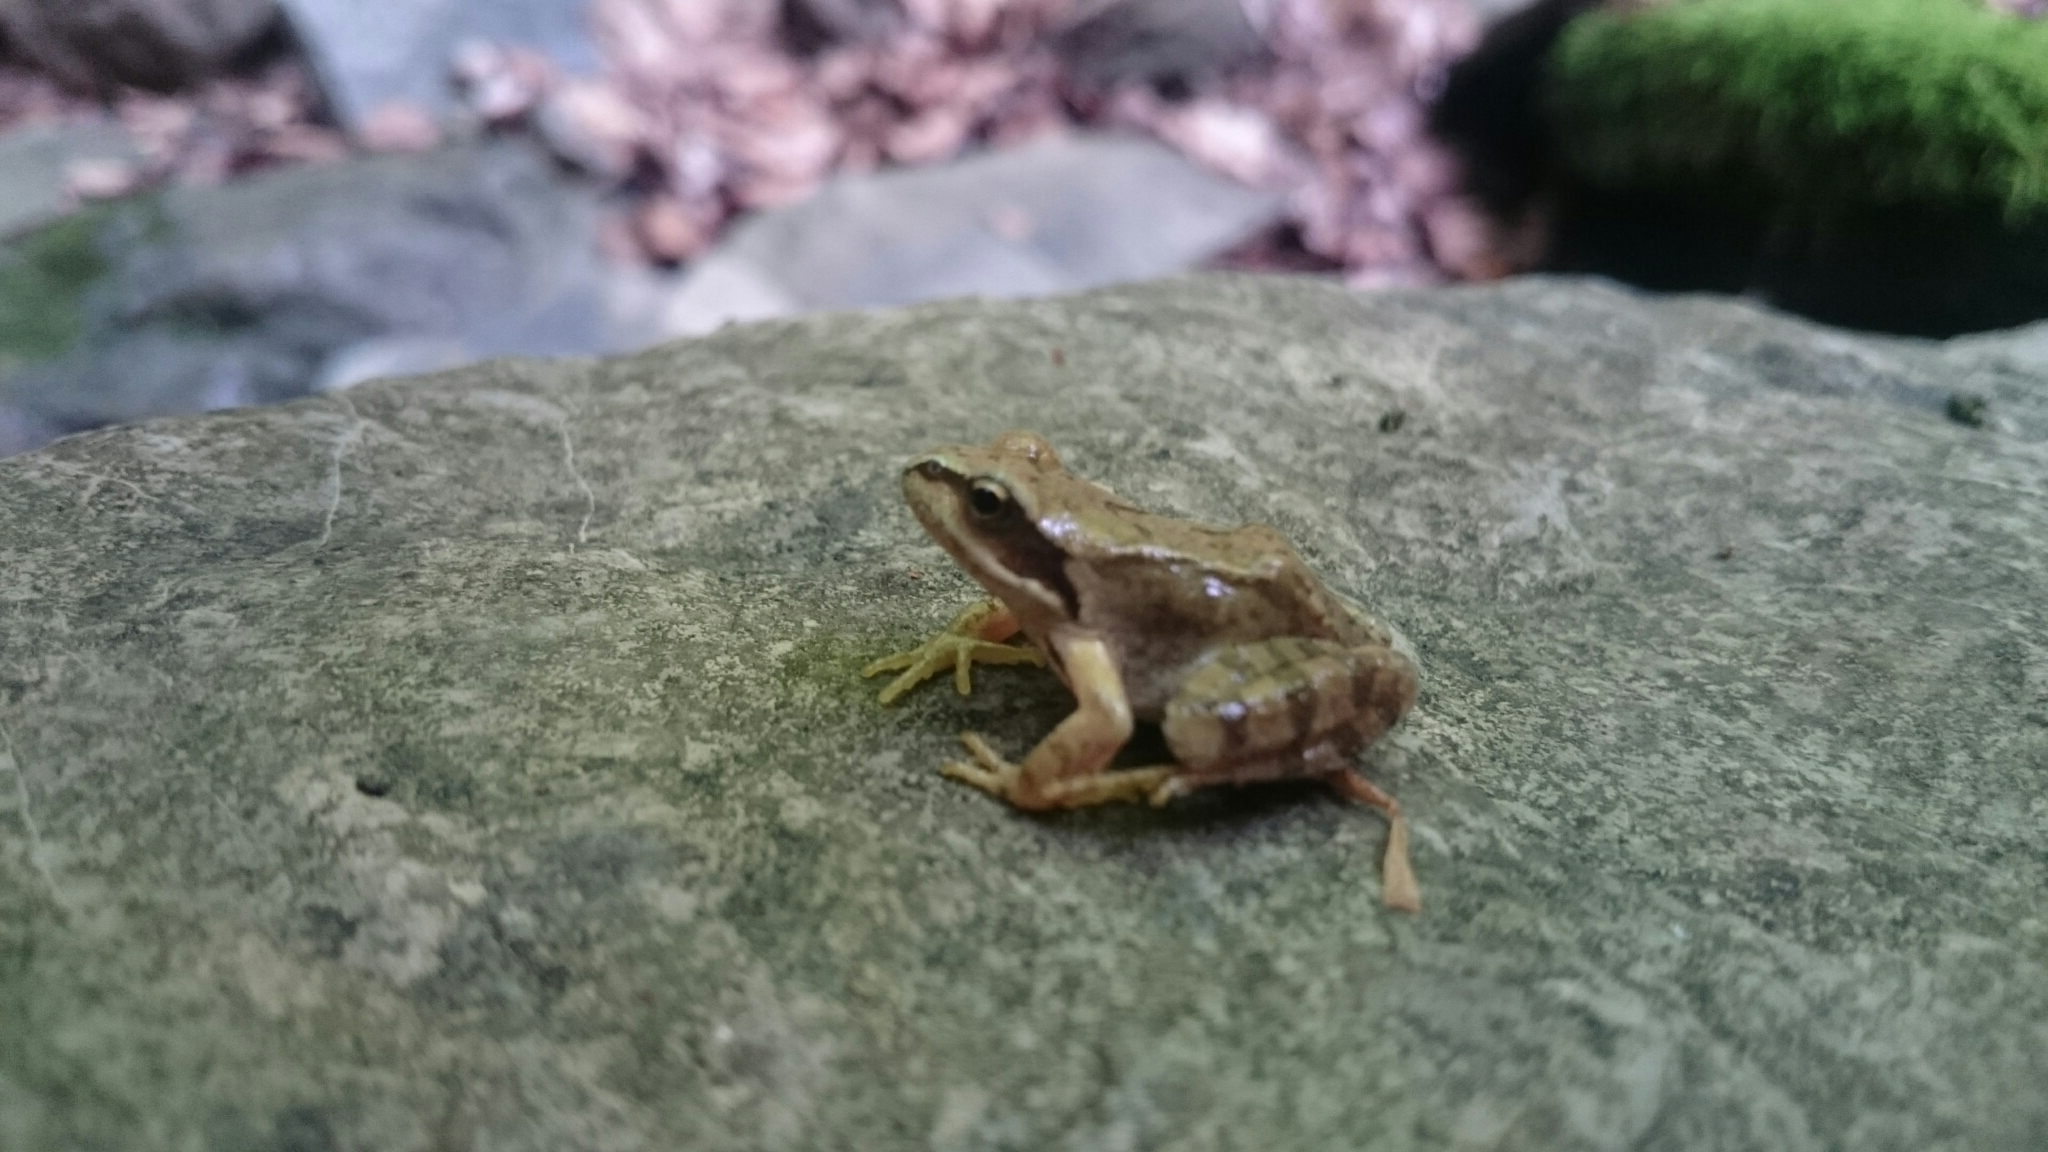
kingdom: Animalia
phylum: Chordata
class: Amphibia
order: Anura
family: Ranidae
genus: Rana
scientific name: Rana temporaria
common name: Common frog
